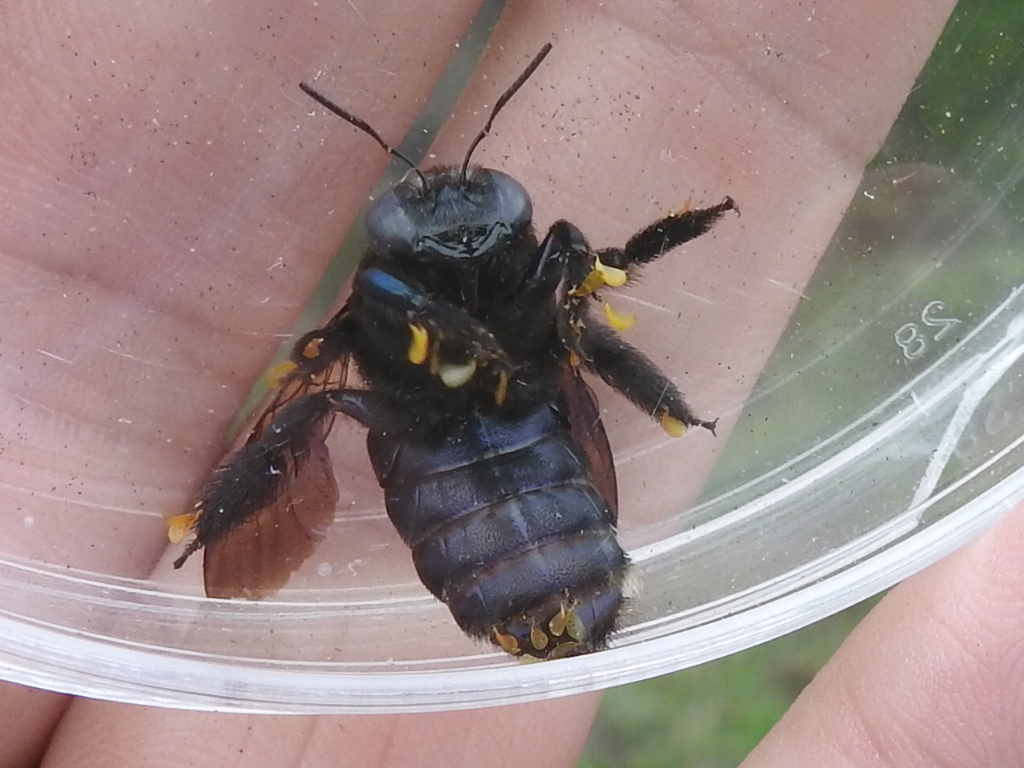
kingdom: Animalia
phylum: Arthropoda
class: Insecta
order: Hymenoptera
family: Apidae
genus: Xylocopa
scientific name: Xylocopa sonorina
